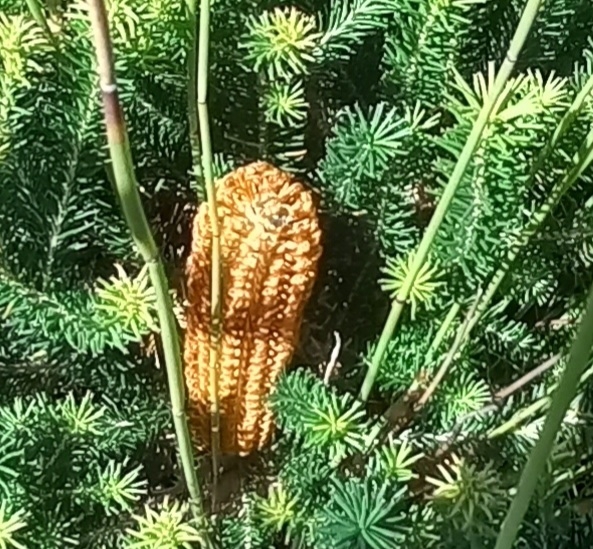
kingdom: Plantae
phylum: Tracheophyta
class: Magnoliopsida
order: Proteales
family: Proteaceae
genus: Banksia
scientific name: Banksia ericifolia
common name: Heath-leaf banksia
